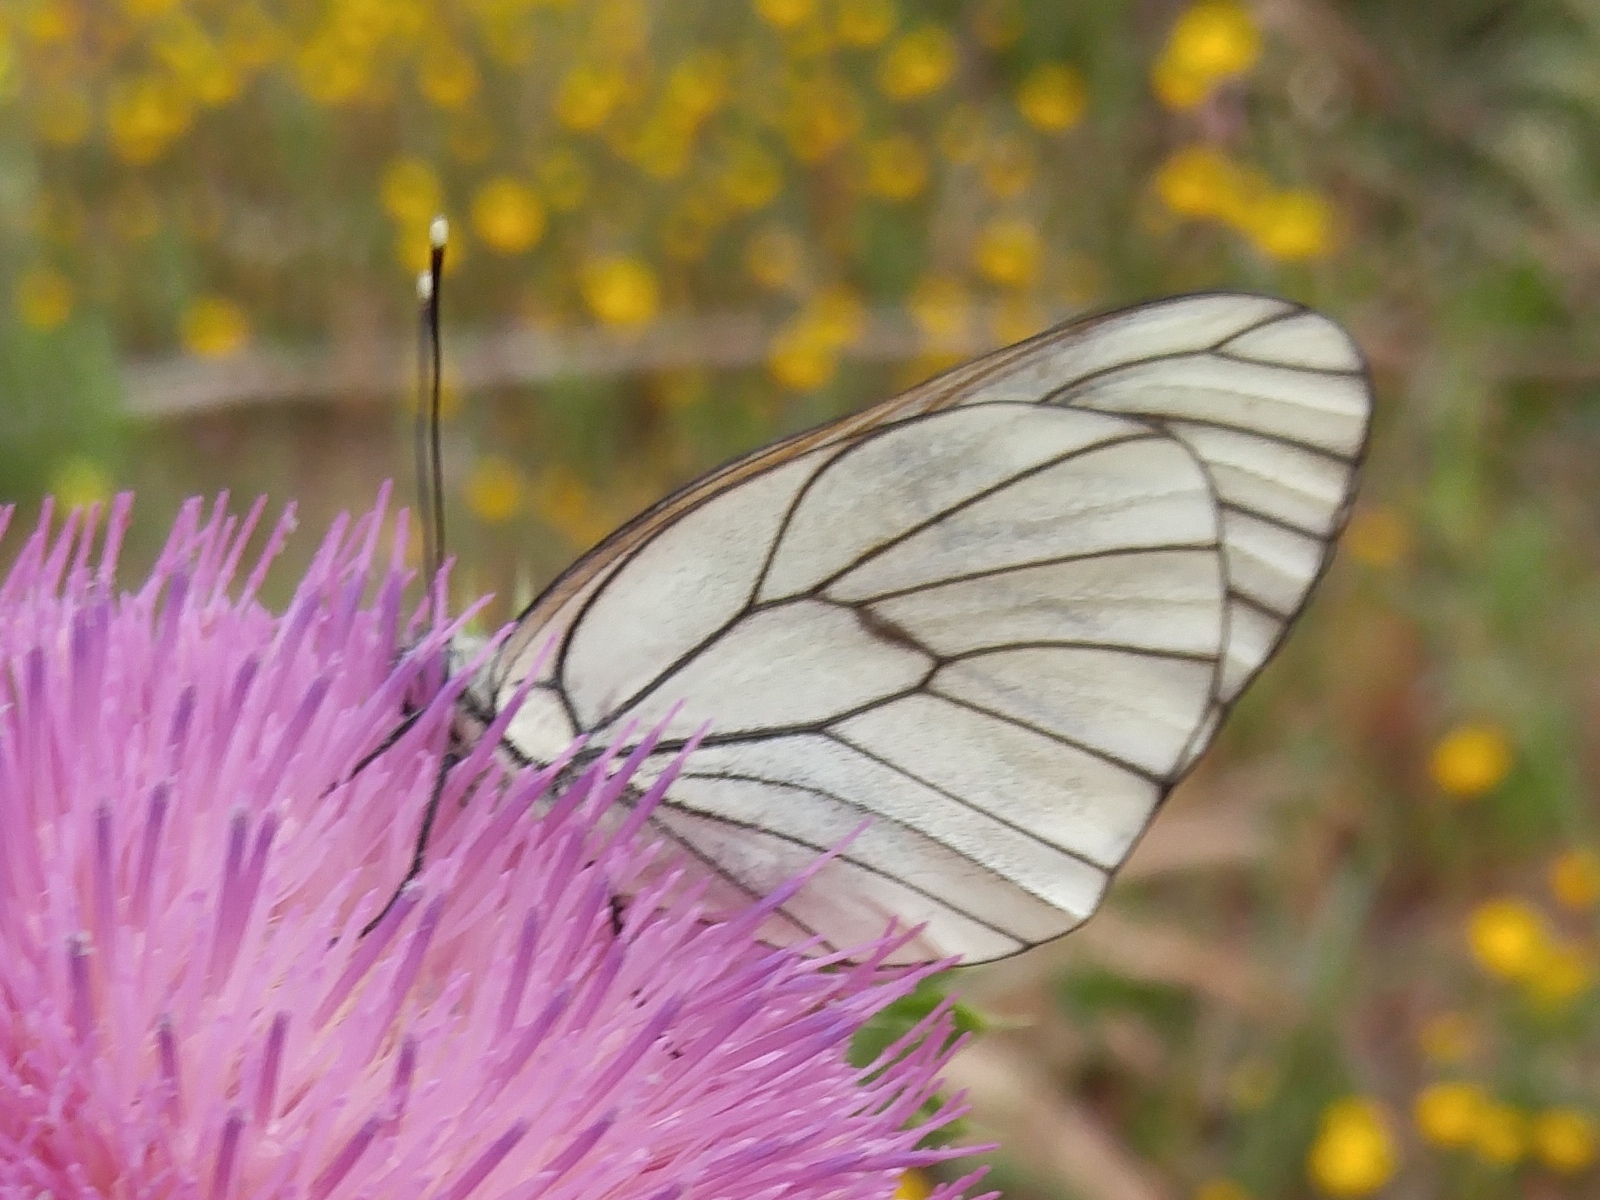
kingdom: Animalia
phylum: Arthropoda
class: Insecta
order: Lepidoptera
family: Pieridae
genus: Aporia
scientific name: Aporia crataegi
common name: Black-veined white
